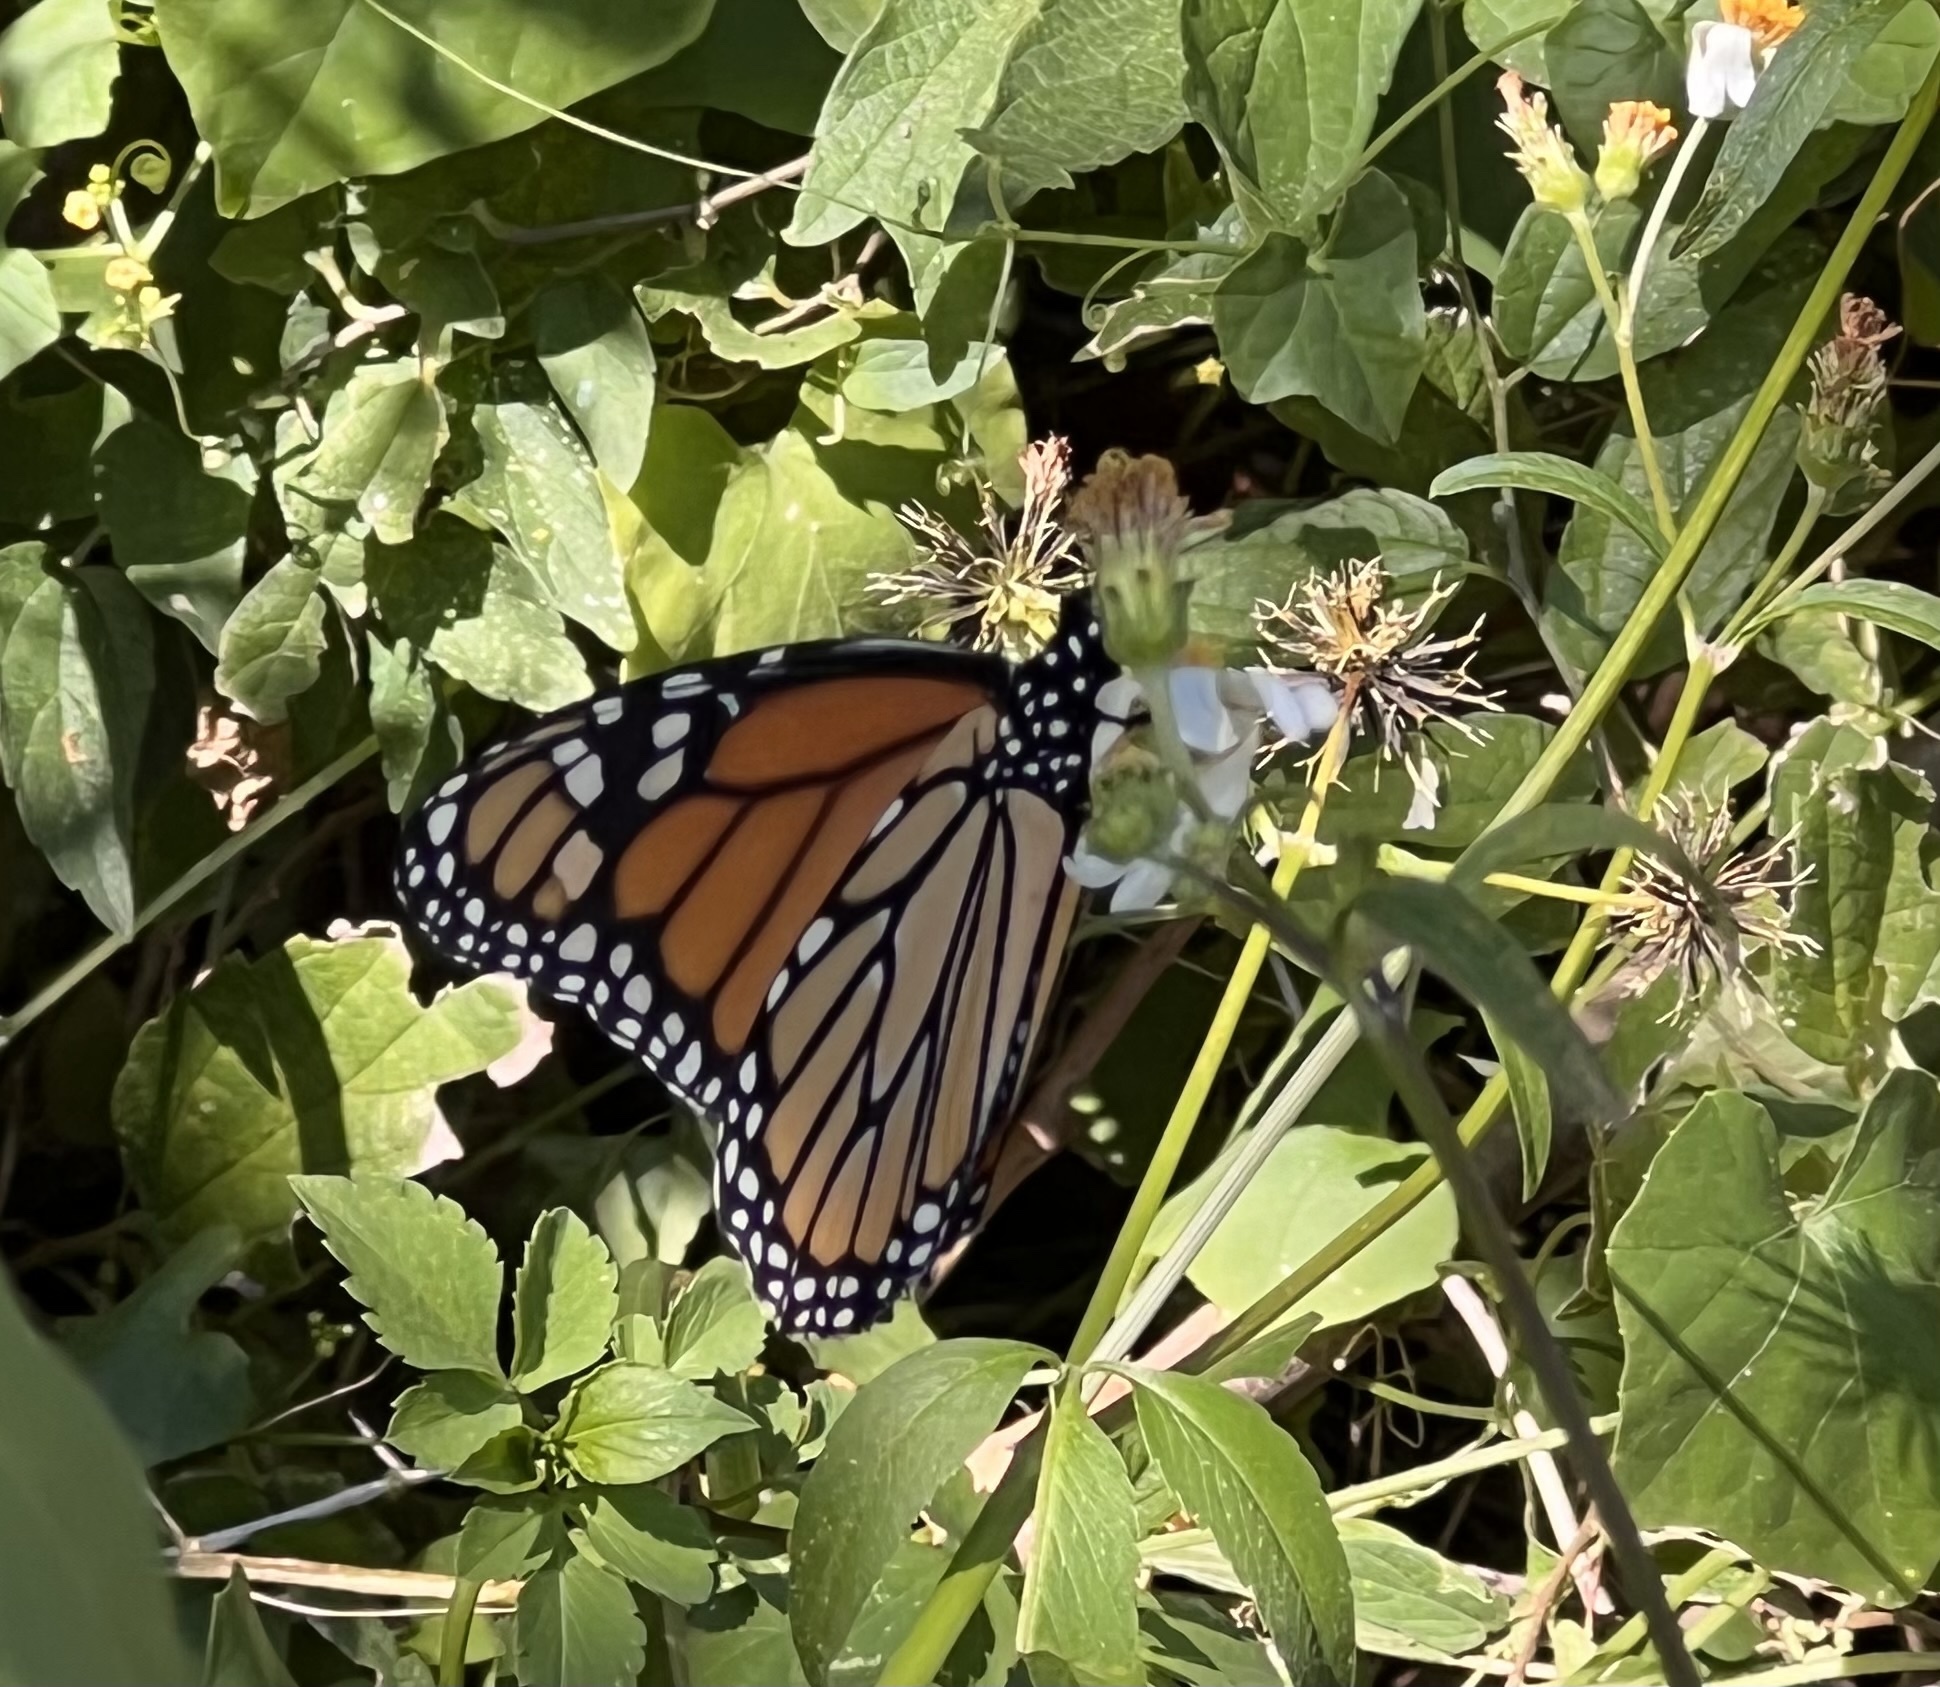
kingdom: Animalia
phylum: Arthropoda
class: Insecta
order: Lepidoptera
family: Nymphalidae
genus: Danaus
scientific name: Danaus plexippus
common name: Monarch
